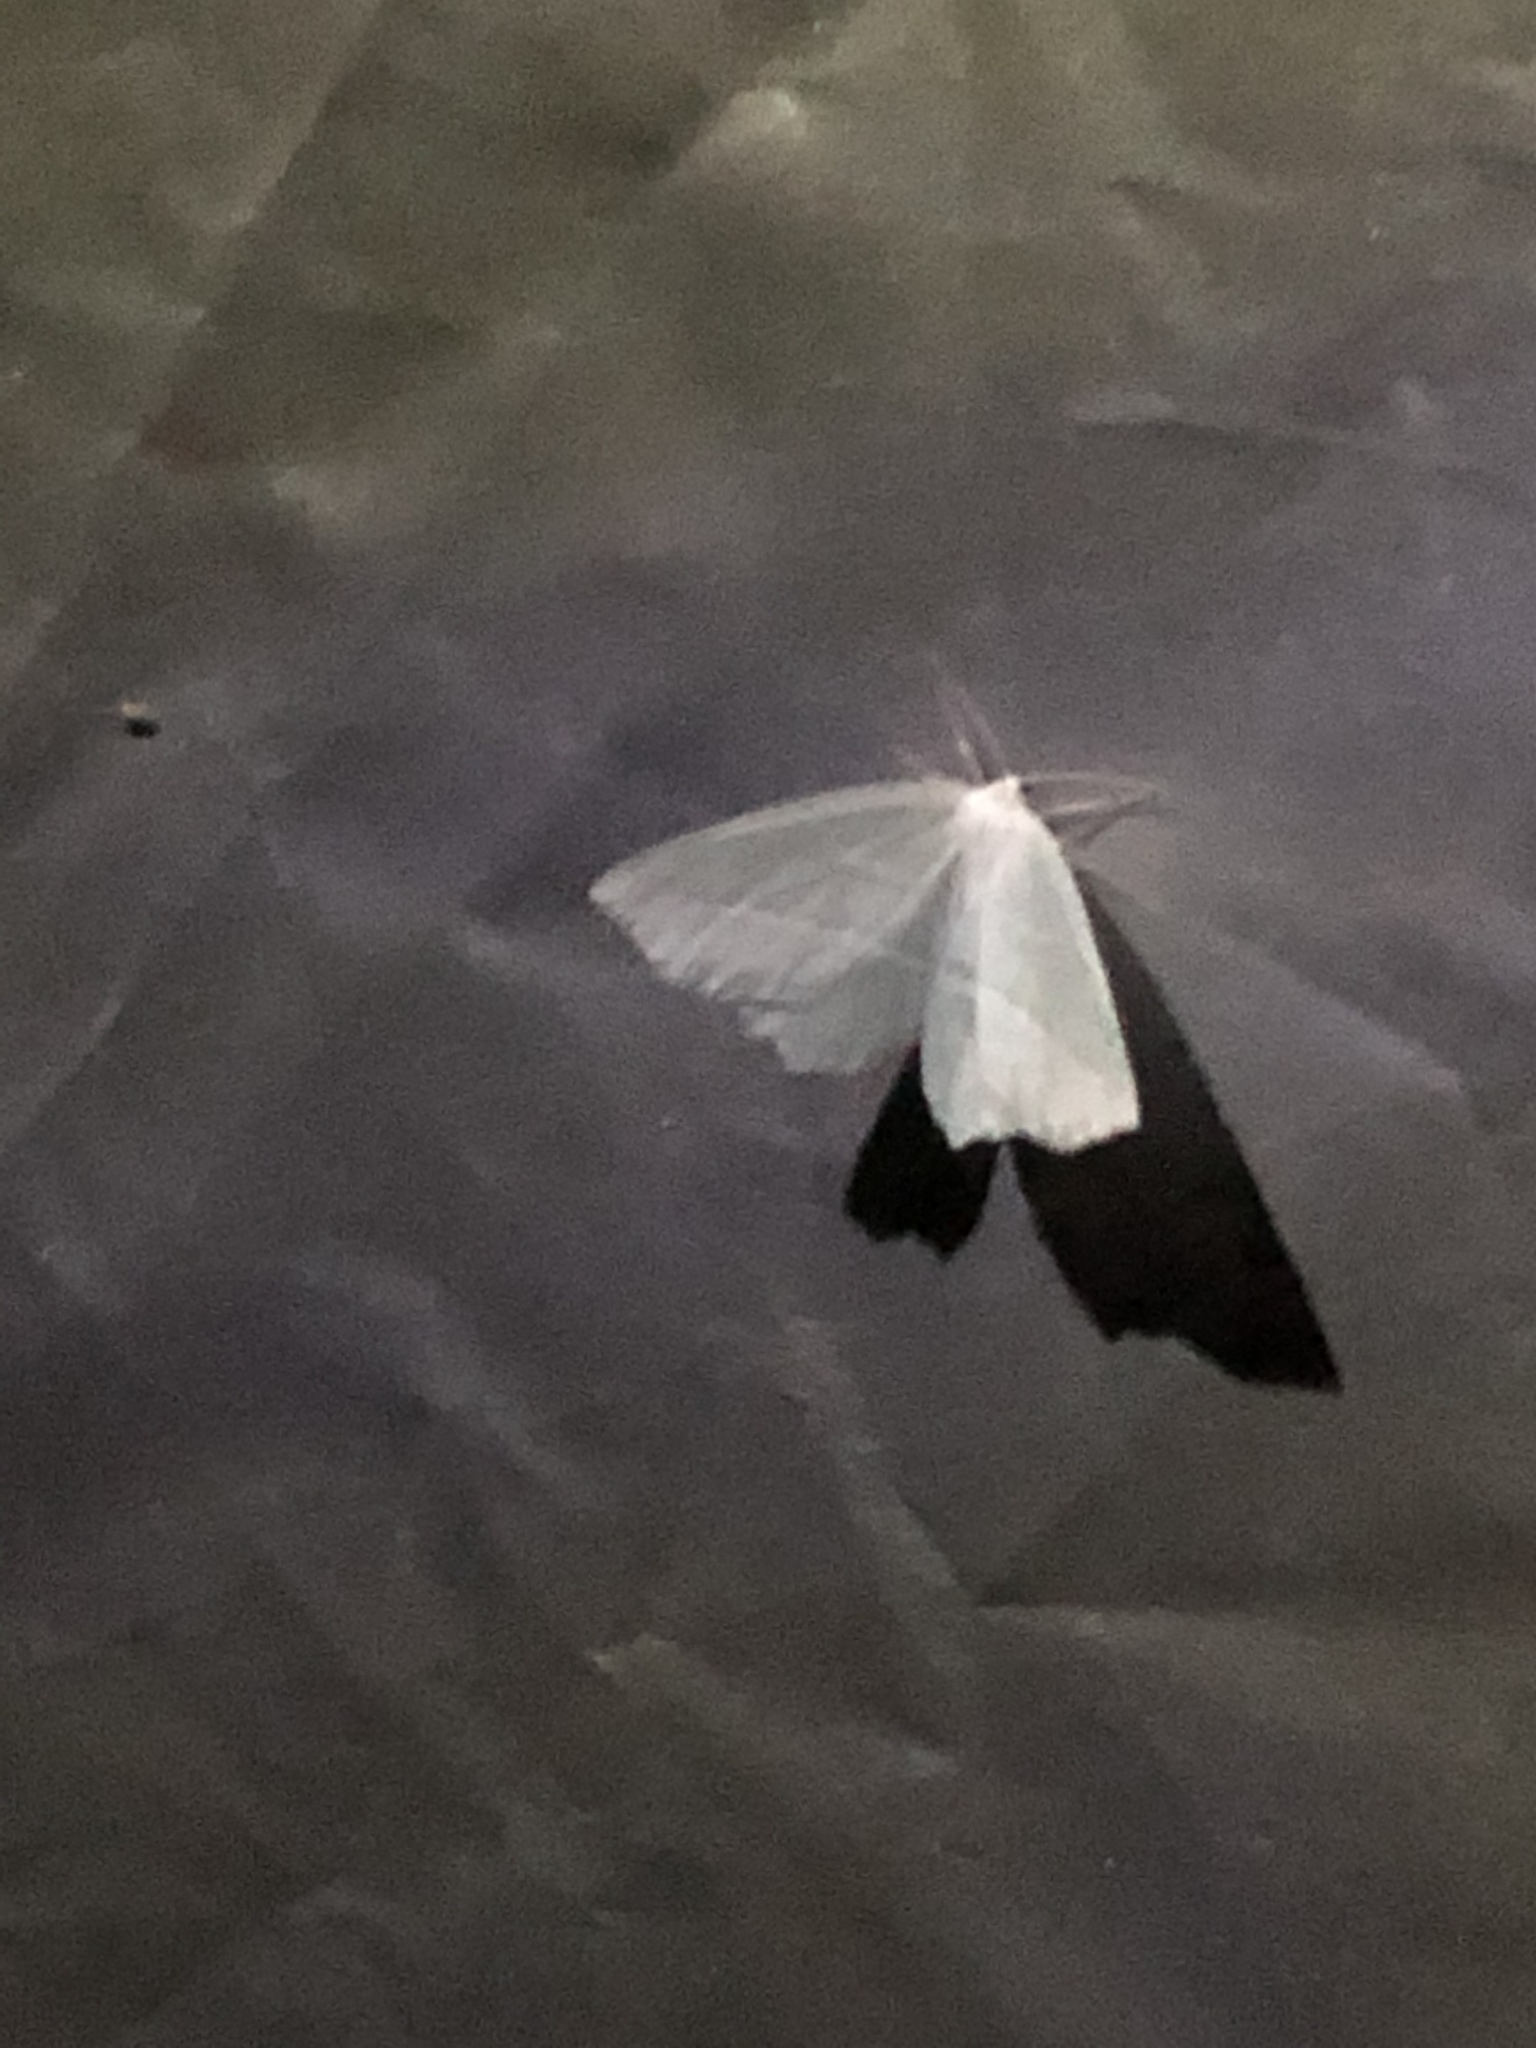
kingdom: Animalia
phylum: Arthropoda
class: Insecta
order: Lepidoptera
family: Geometridae
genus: Campaea
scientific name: Campaea perlata
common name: Fringed looper
